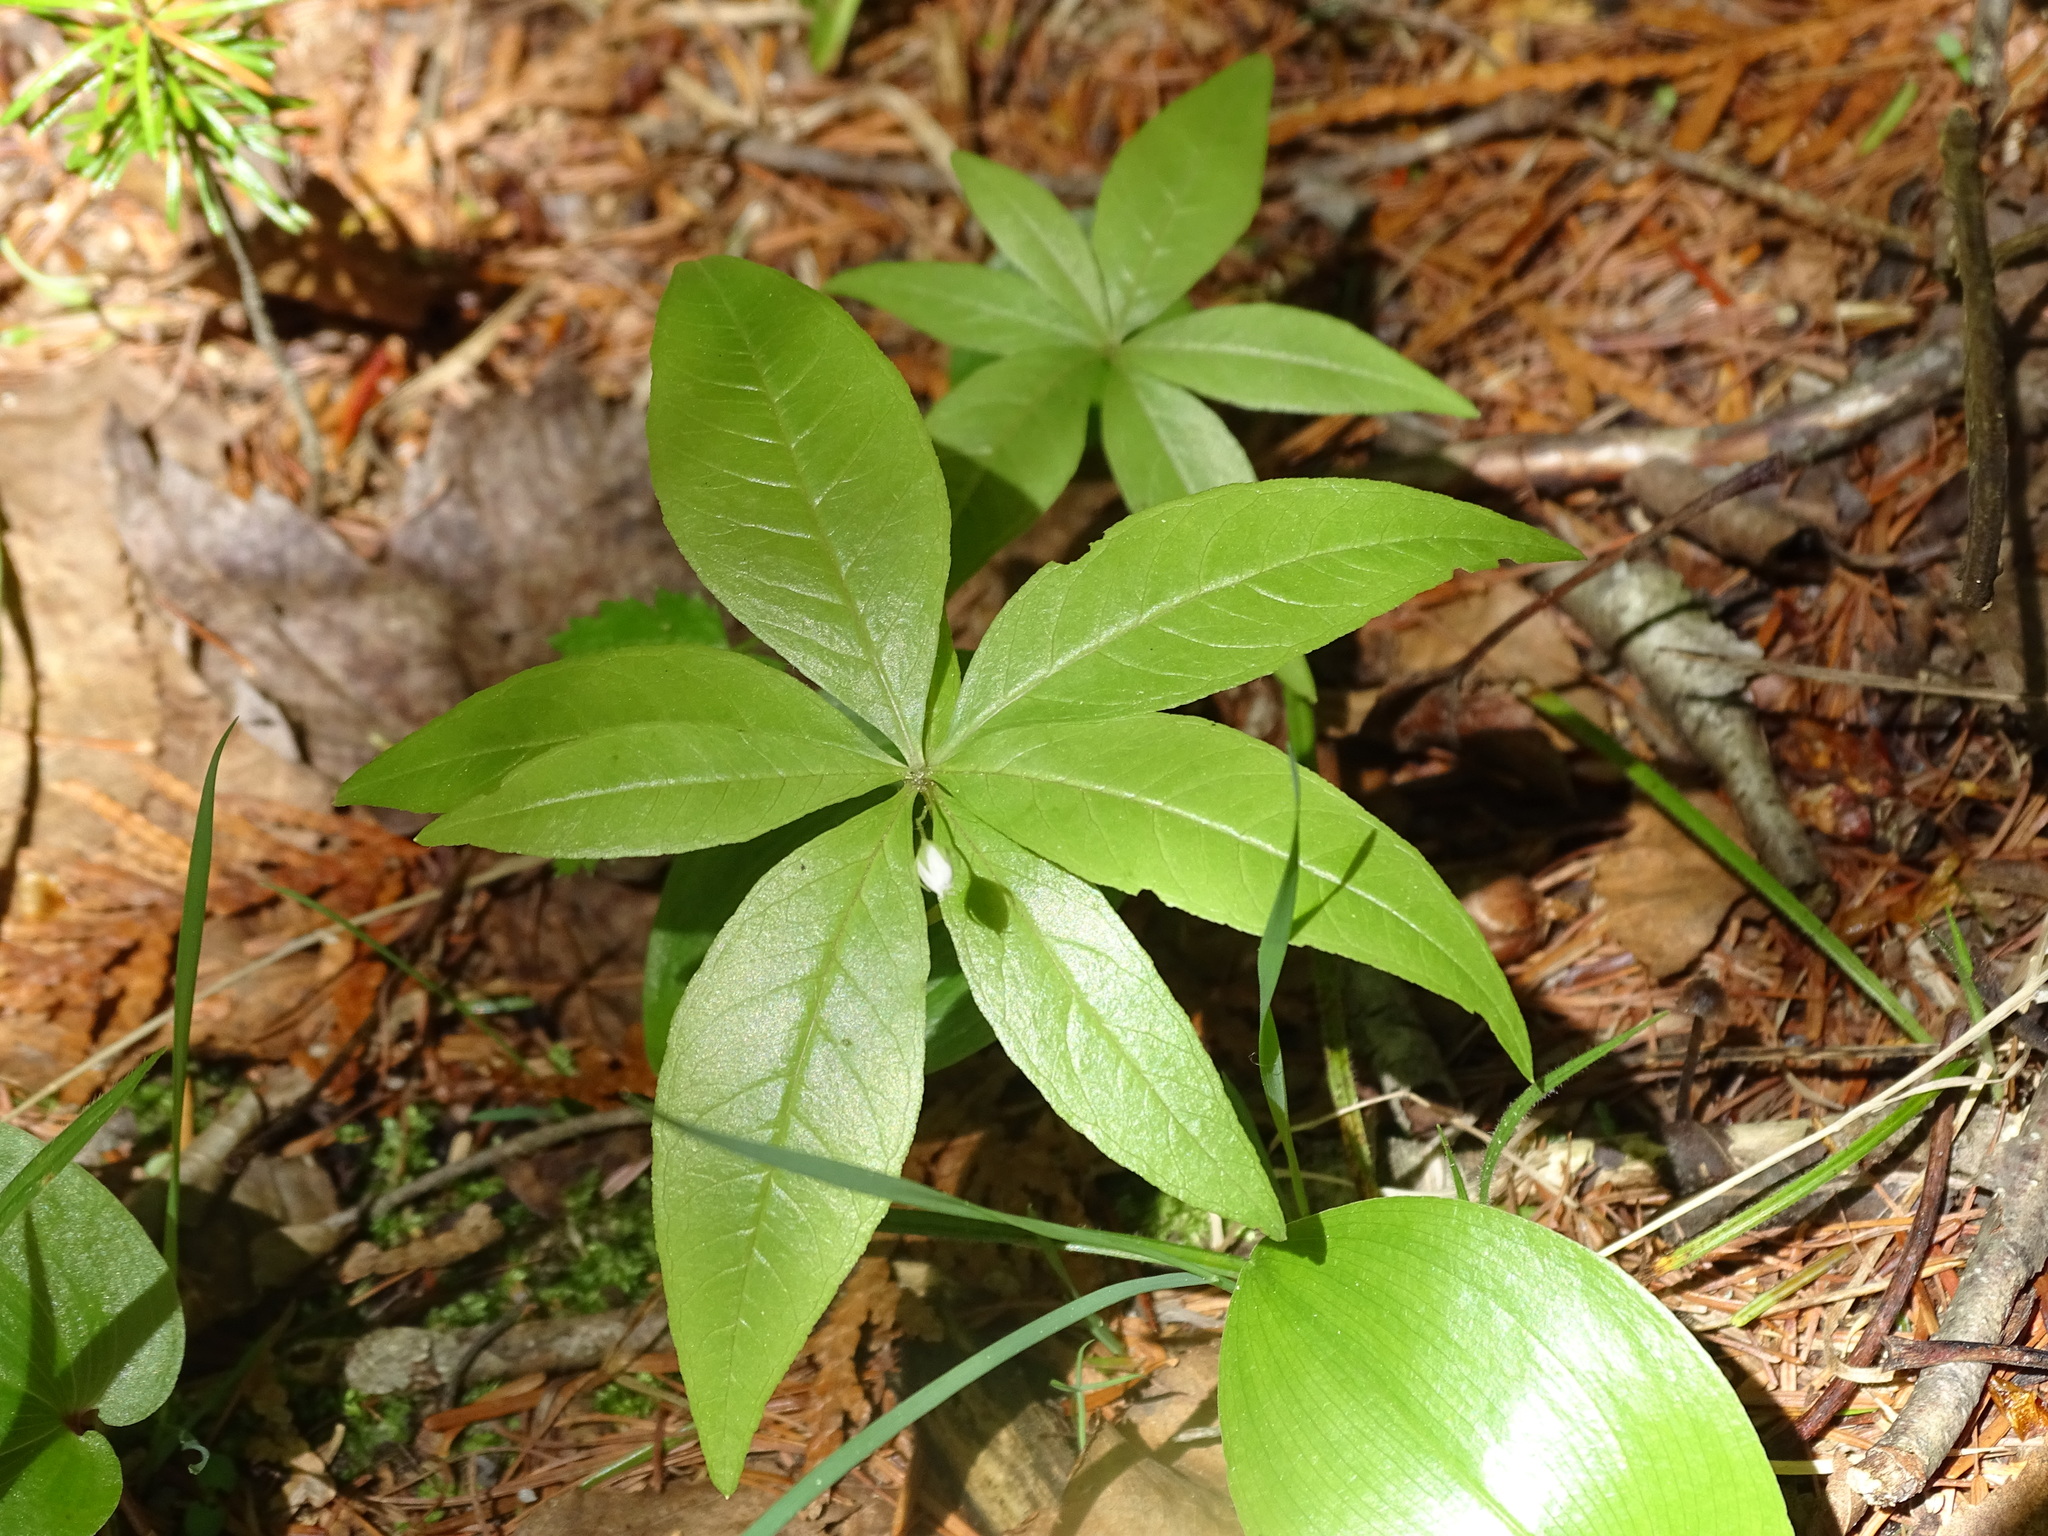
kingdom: Plantae
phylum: Tracheophyta
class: Magnoliopsida
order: Ericales
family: Primulaceae
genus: Lysimachia
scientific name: Lysimachia borealis
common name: American starflower
